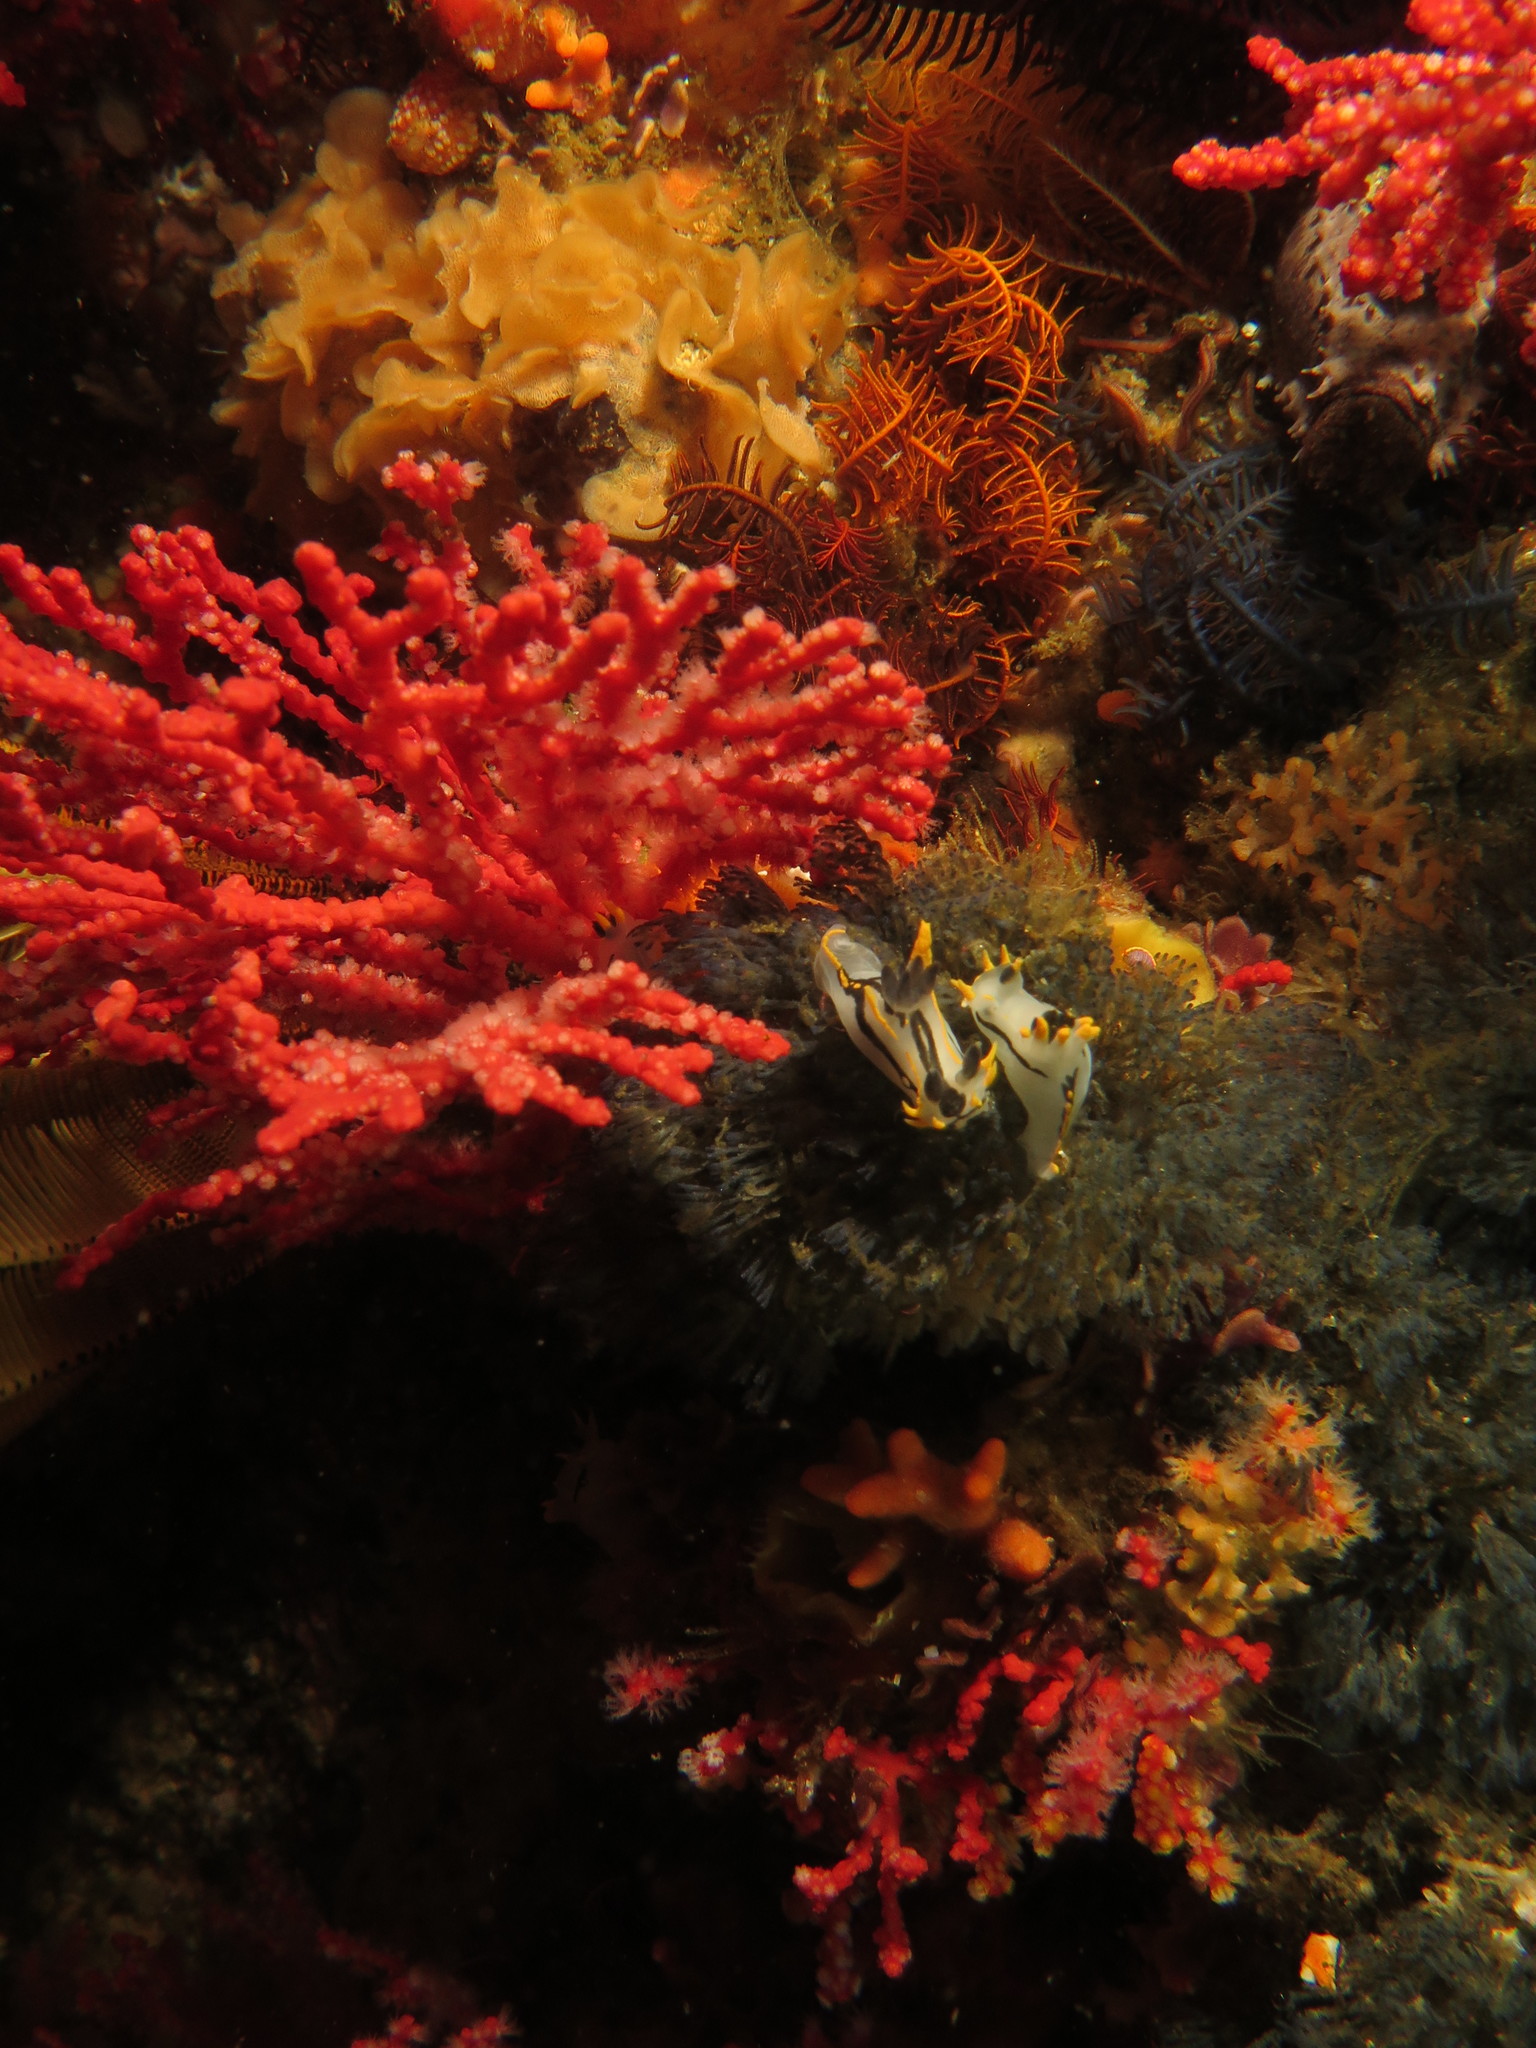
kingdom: Animalia
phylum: Mollusca
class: Gastropoda
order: Nudibranchia
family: Polyceridae
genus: Polycera
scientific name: Polycera
